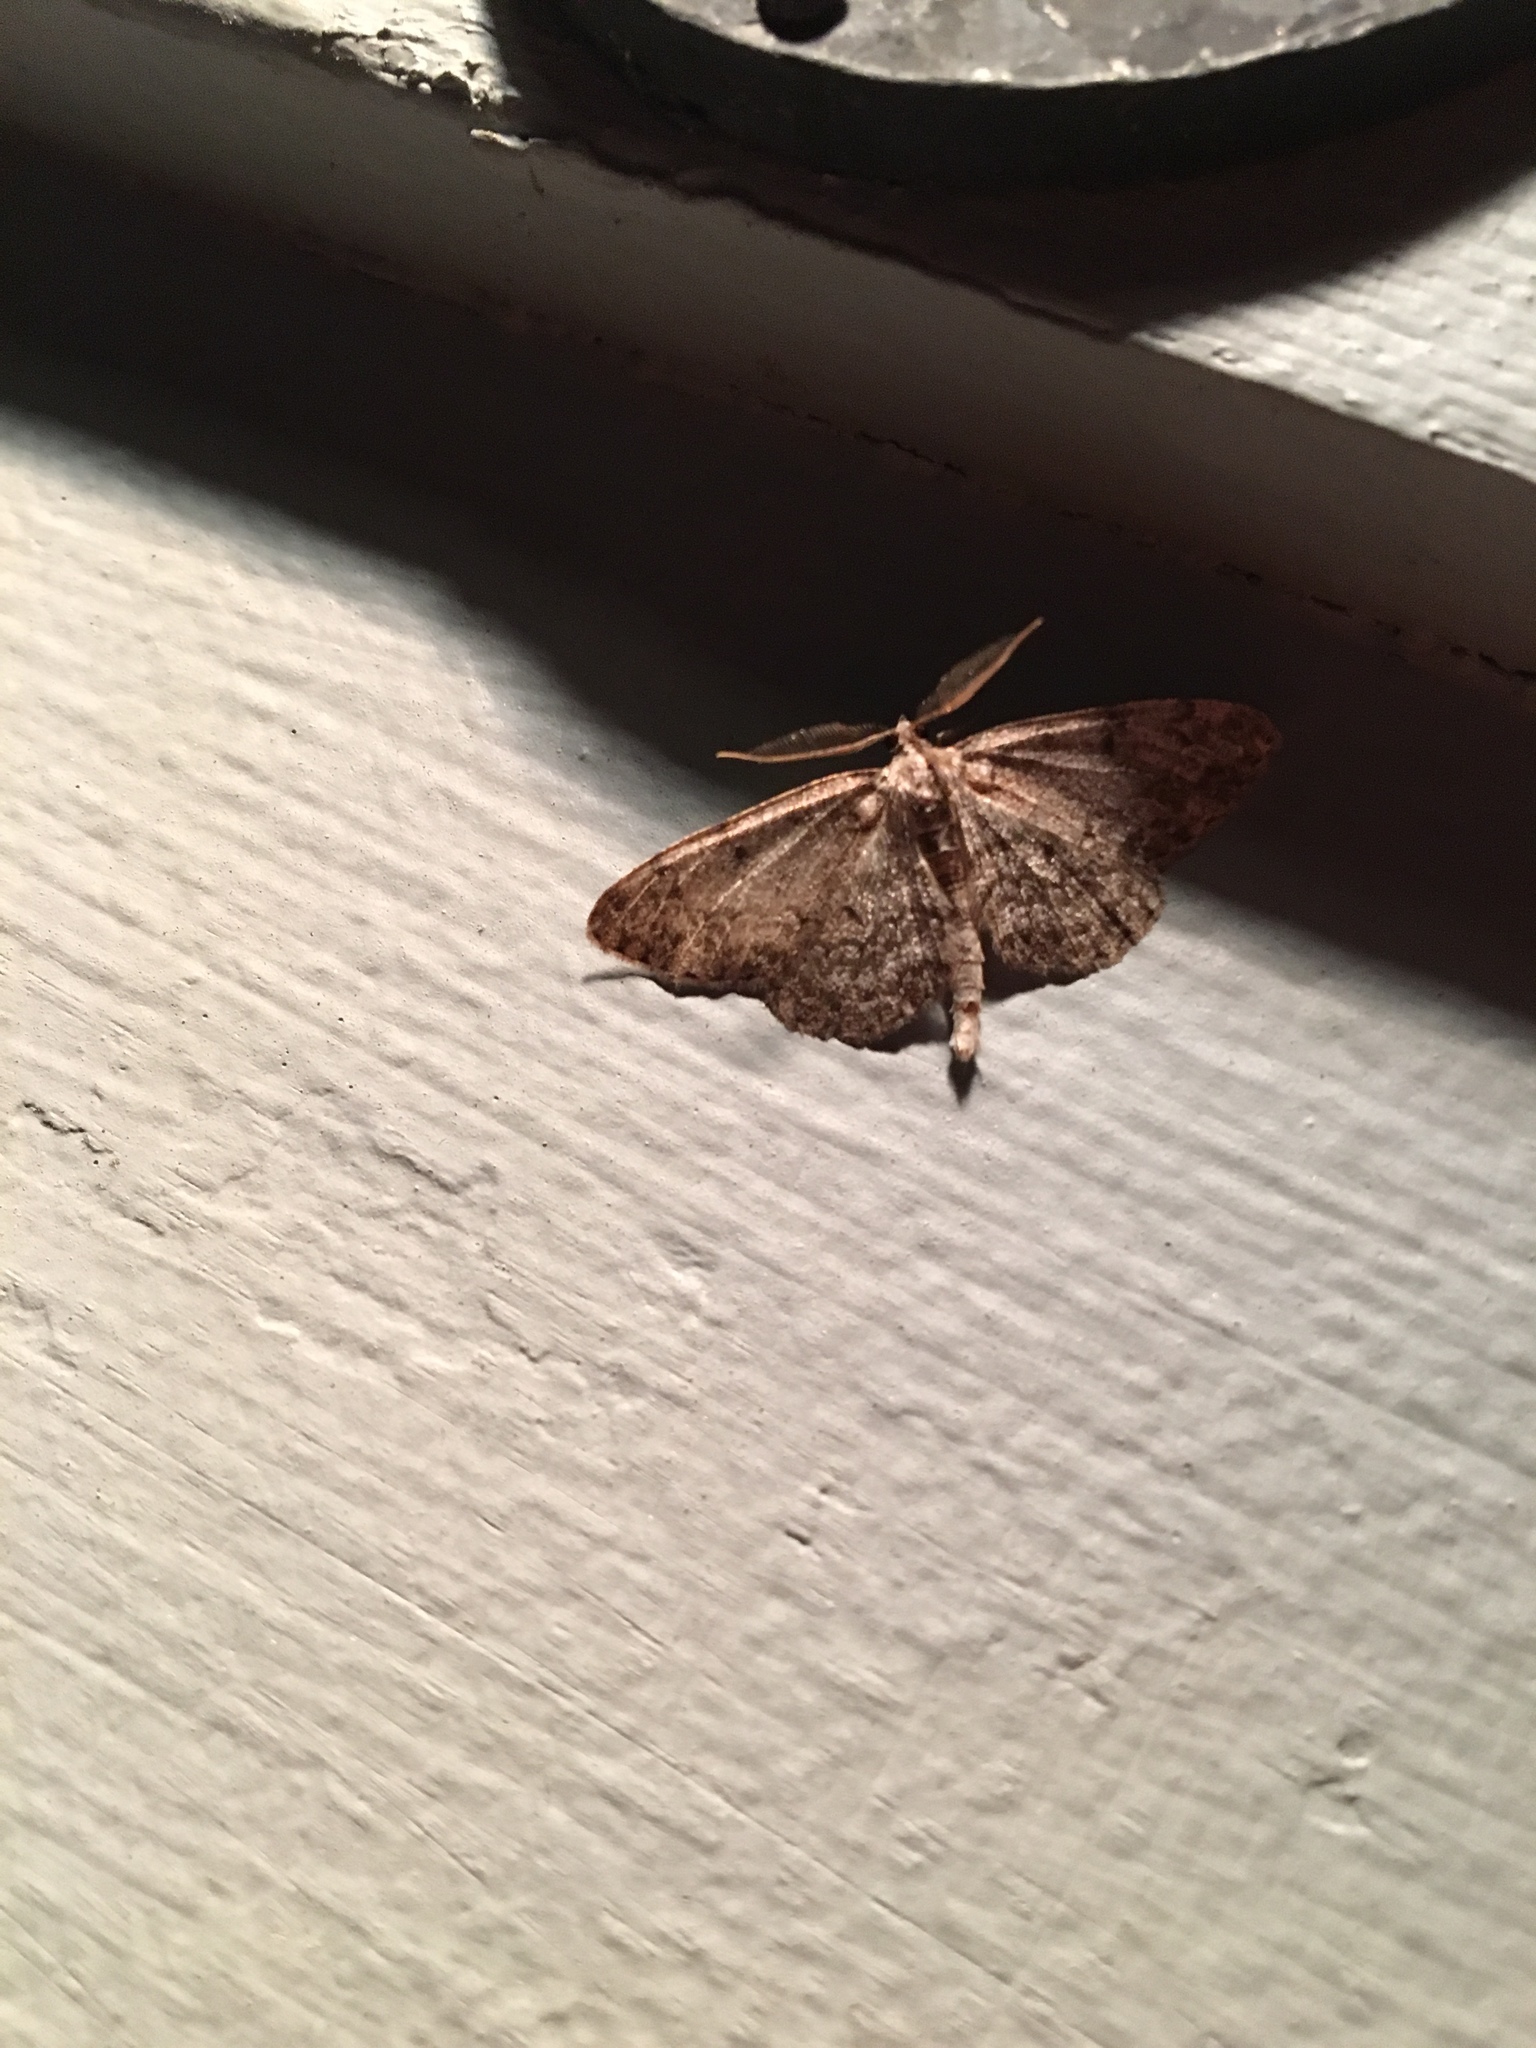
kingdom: Animalia
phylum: Arthropoda
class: Insecta
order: Lepidoptera
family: Geometridae
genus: Protoboarmia
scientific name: Protoboarmia porcelaria
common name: Porcelain gray
